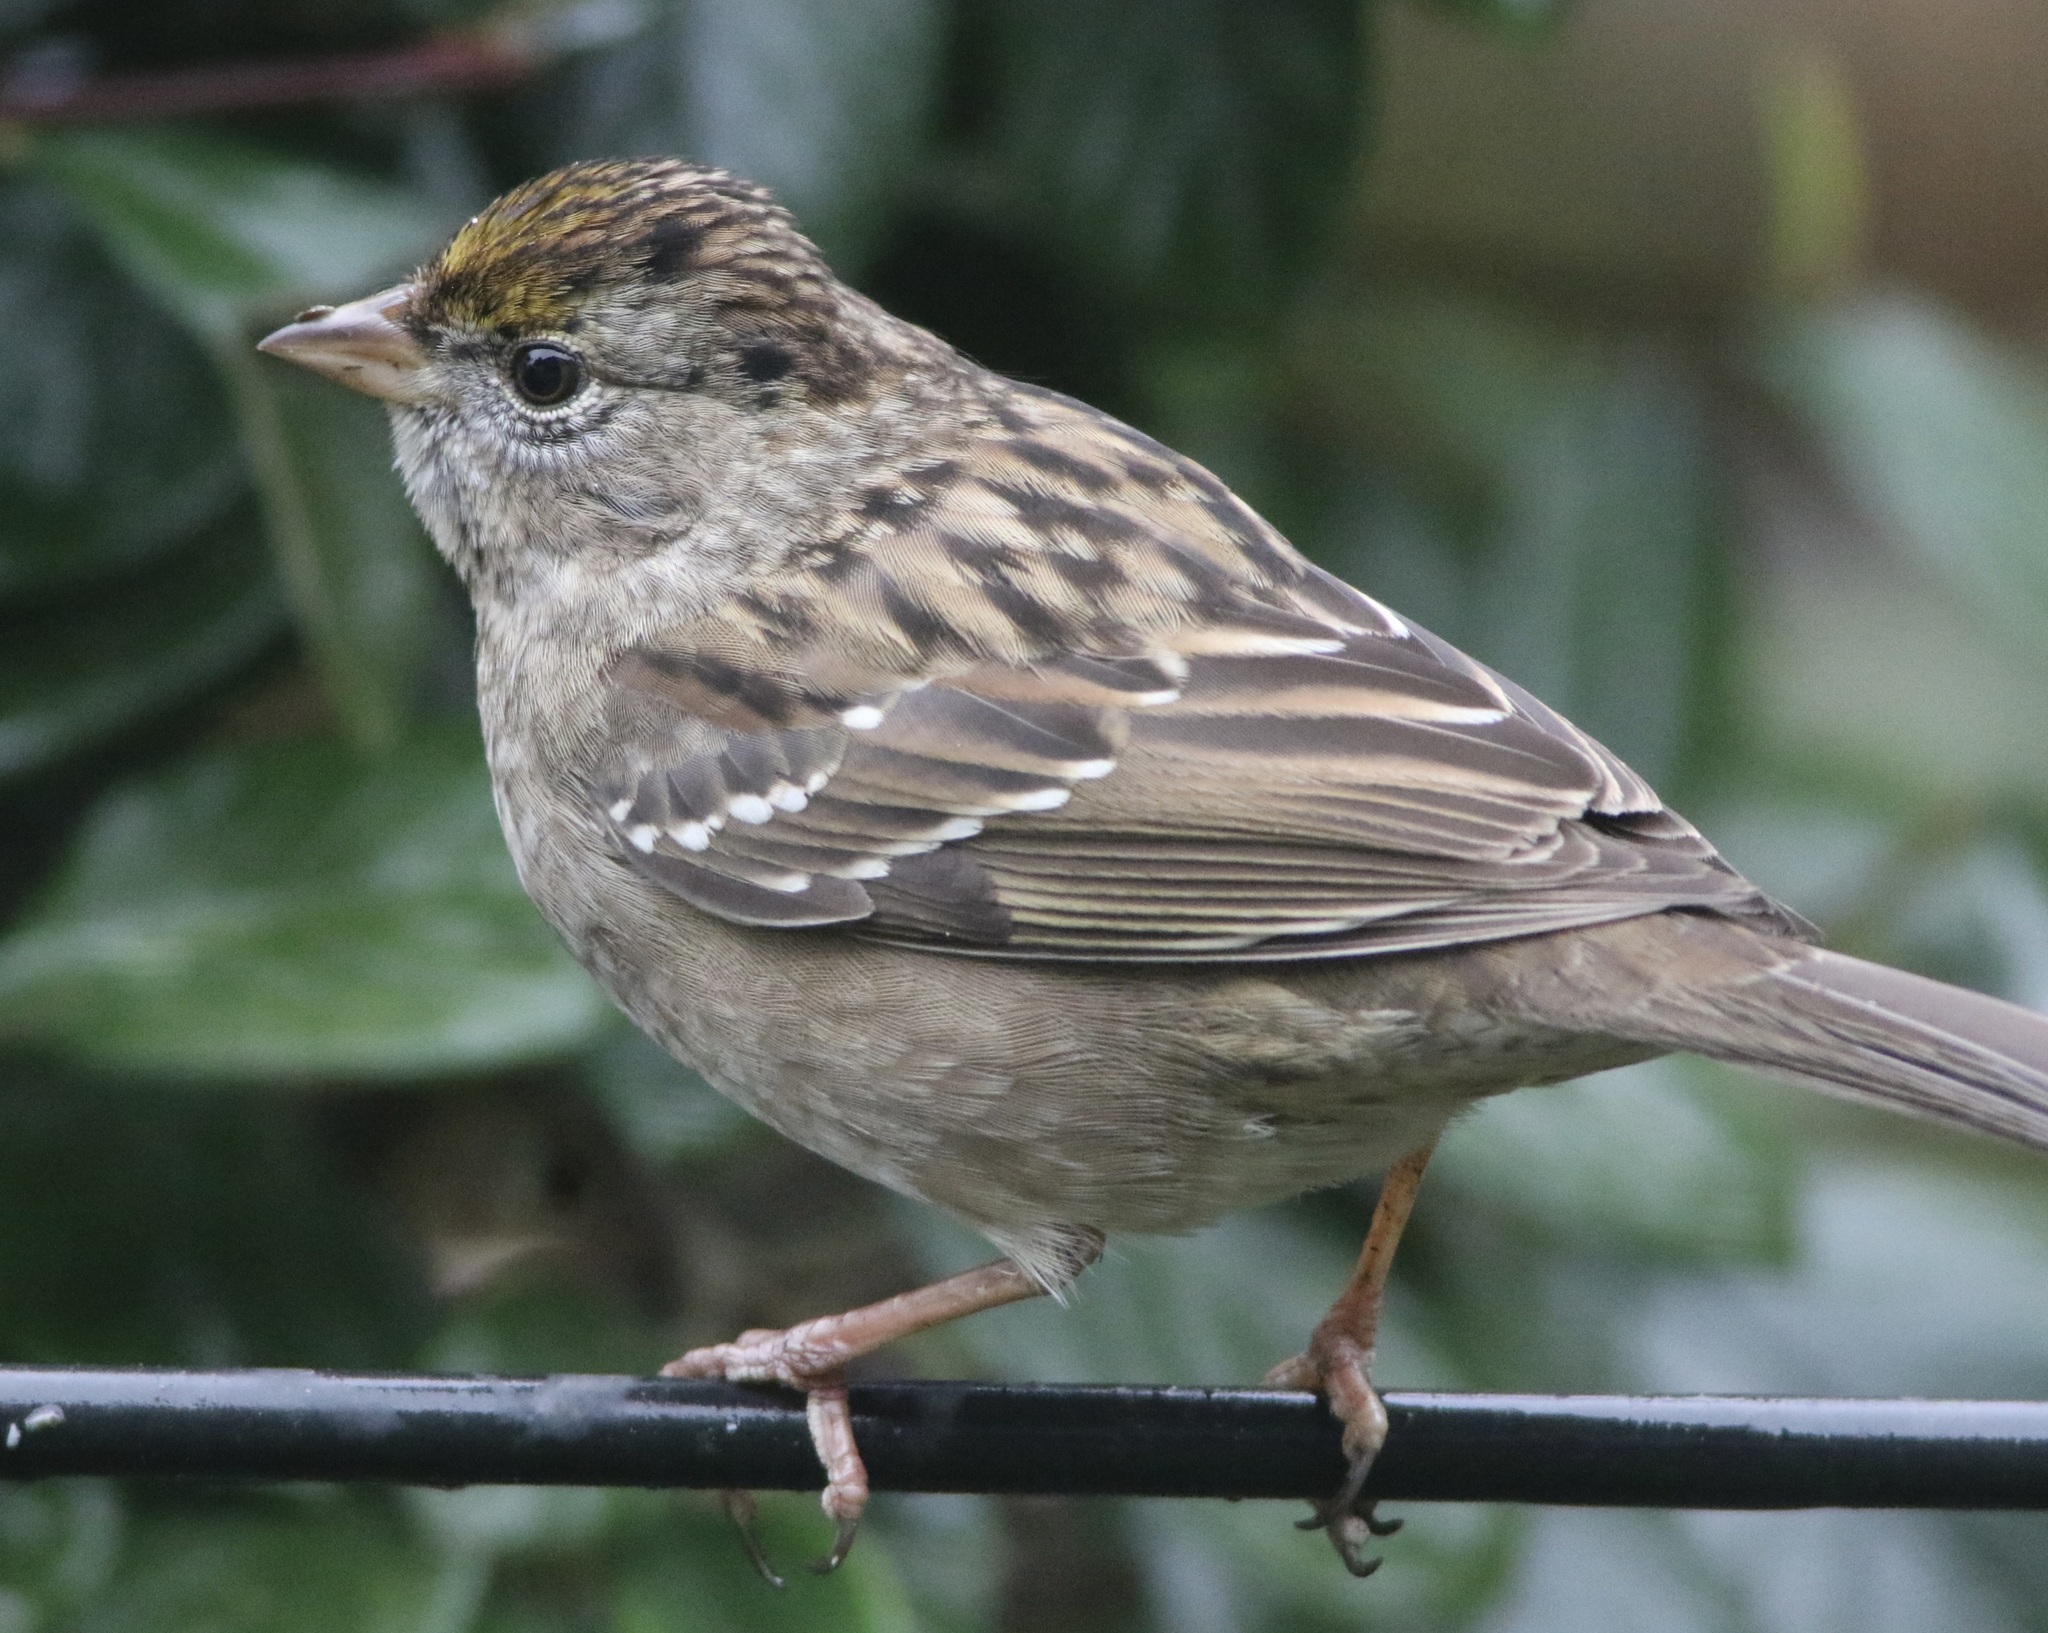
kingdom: Animalia
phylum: Chordata
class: Aves
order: Passeriformes
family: Passerellidae
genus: Zonotrichia
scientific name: Zonotrichia atricapilla
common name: Golden-crowned sparrow
